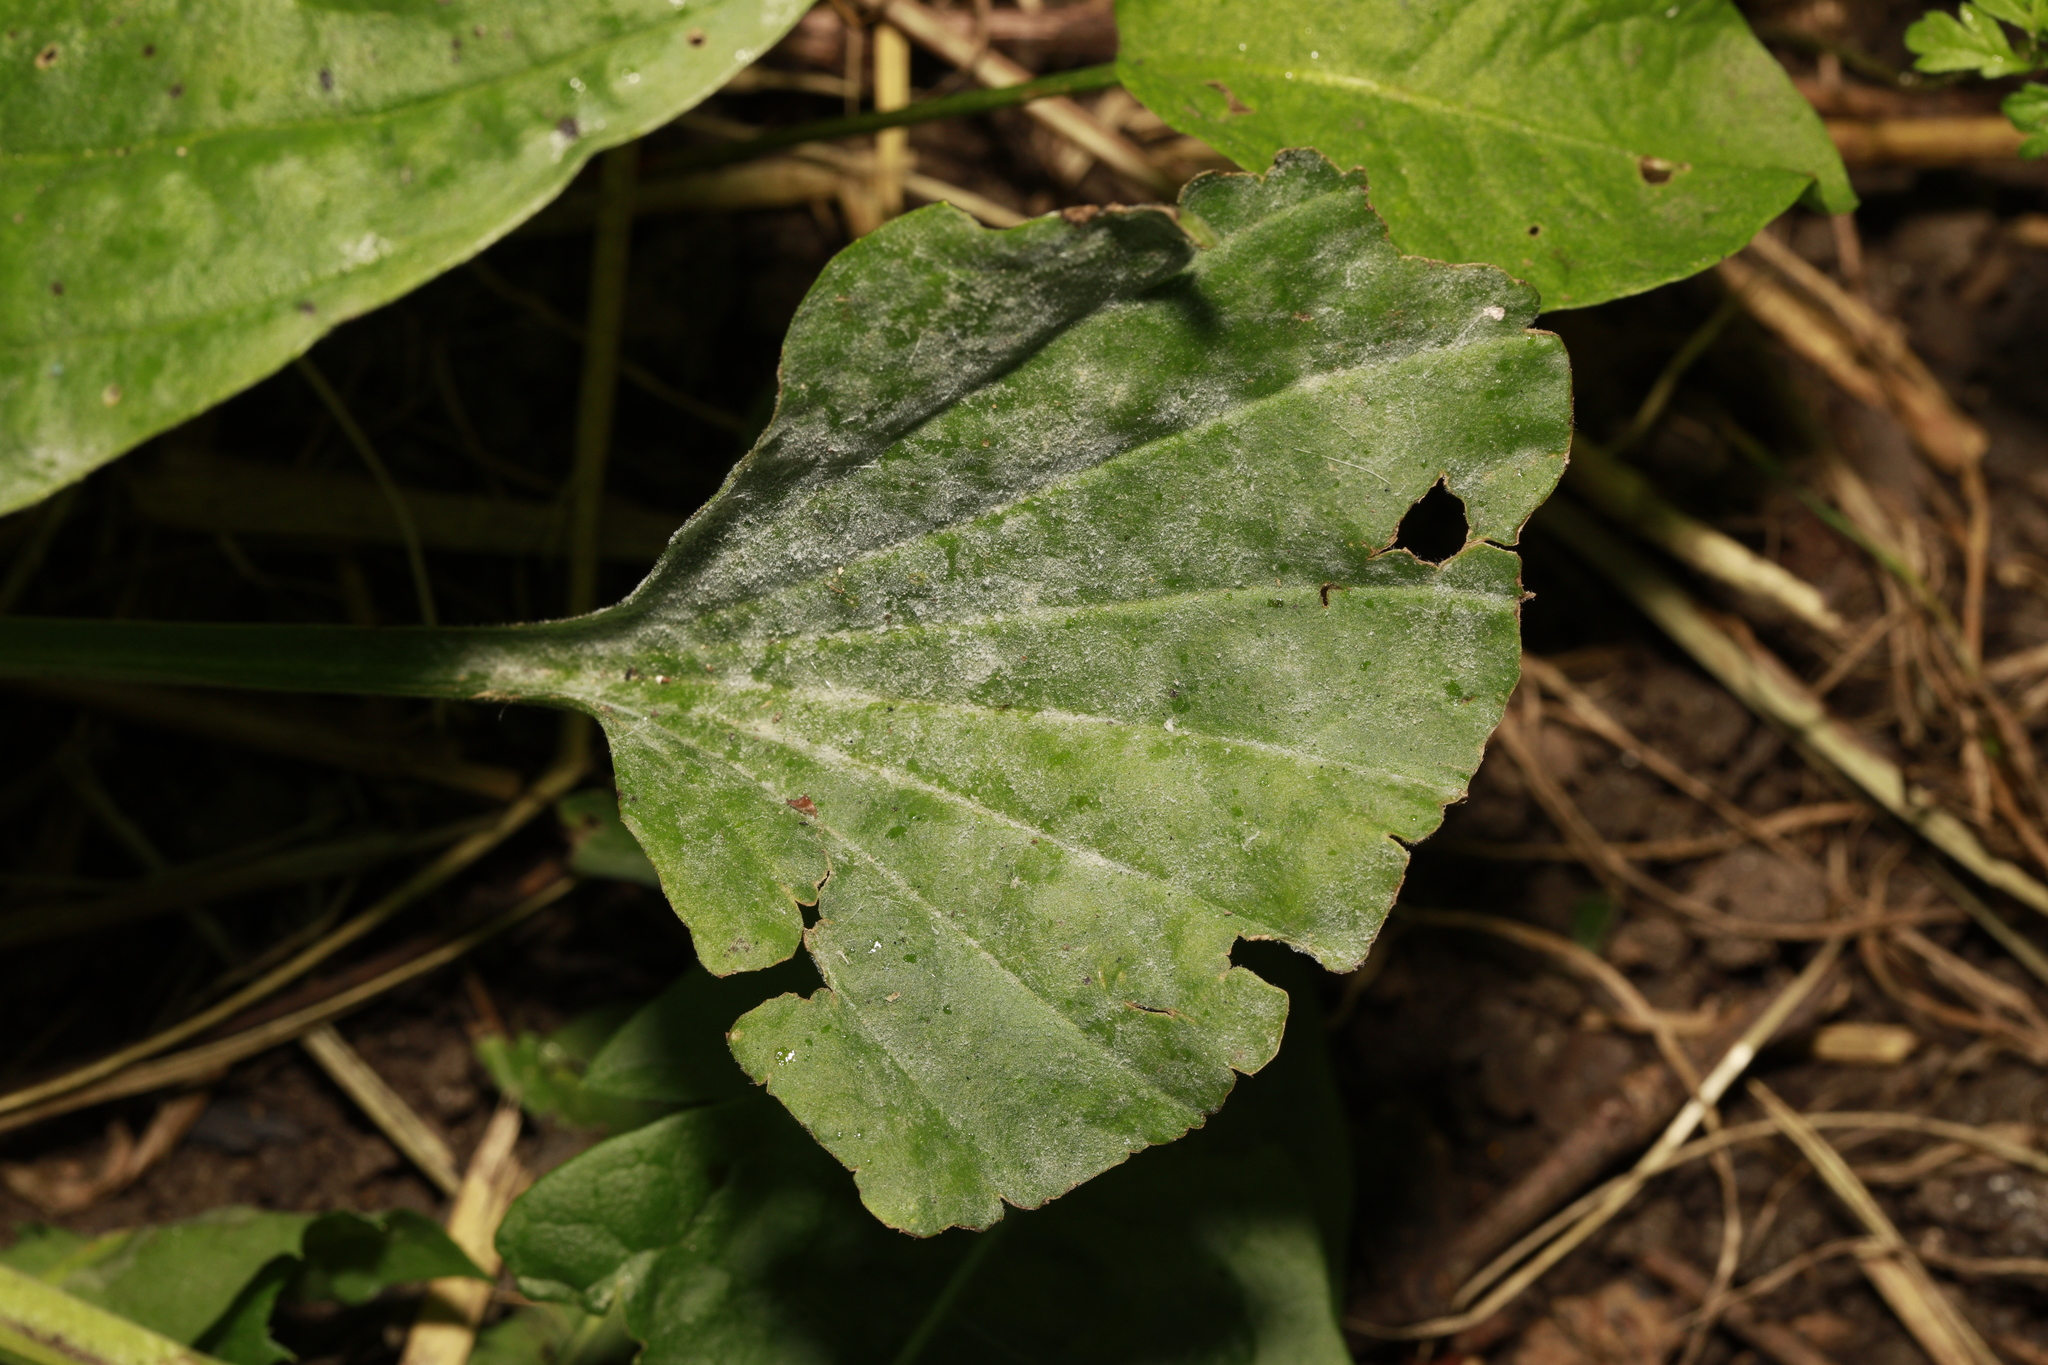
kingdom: Fungi
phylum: Ascomycota
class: Leotiomycetes
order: Helotiales
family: Erysiphaceae
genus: Golovinomyces
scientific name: Golovinomyces sordidus
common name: Plantain mildew
